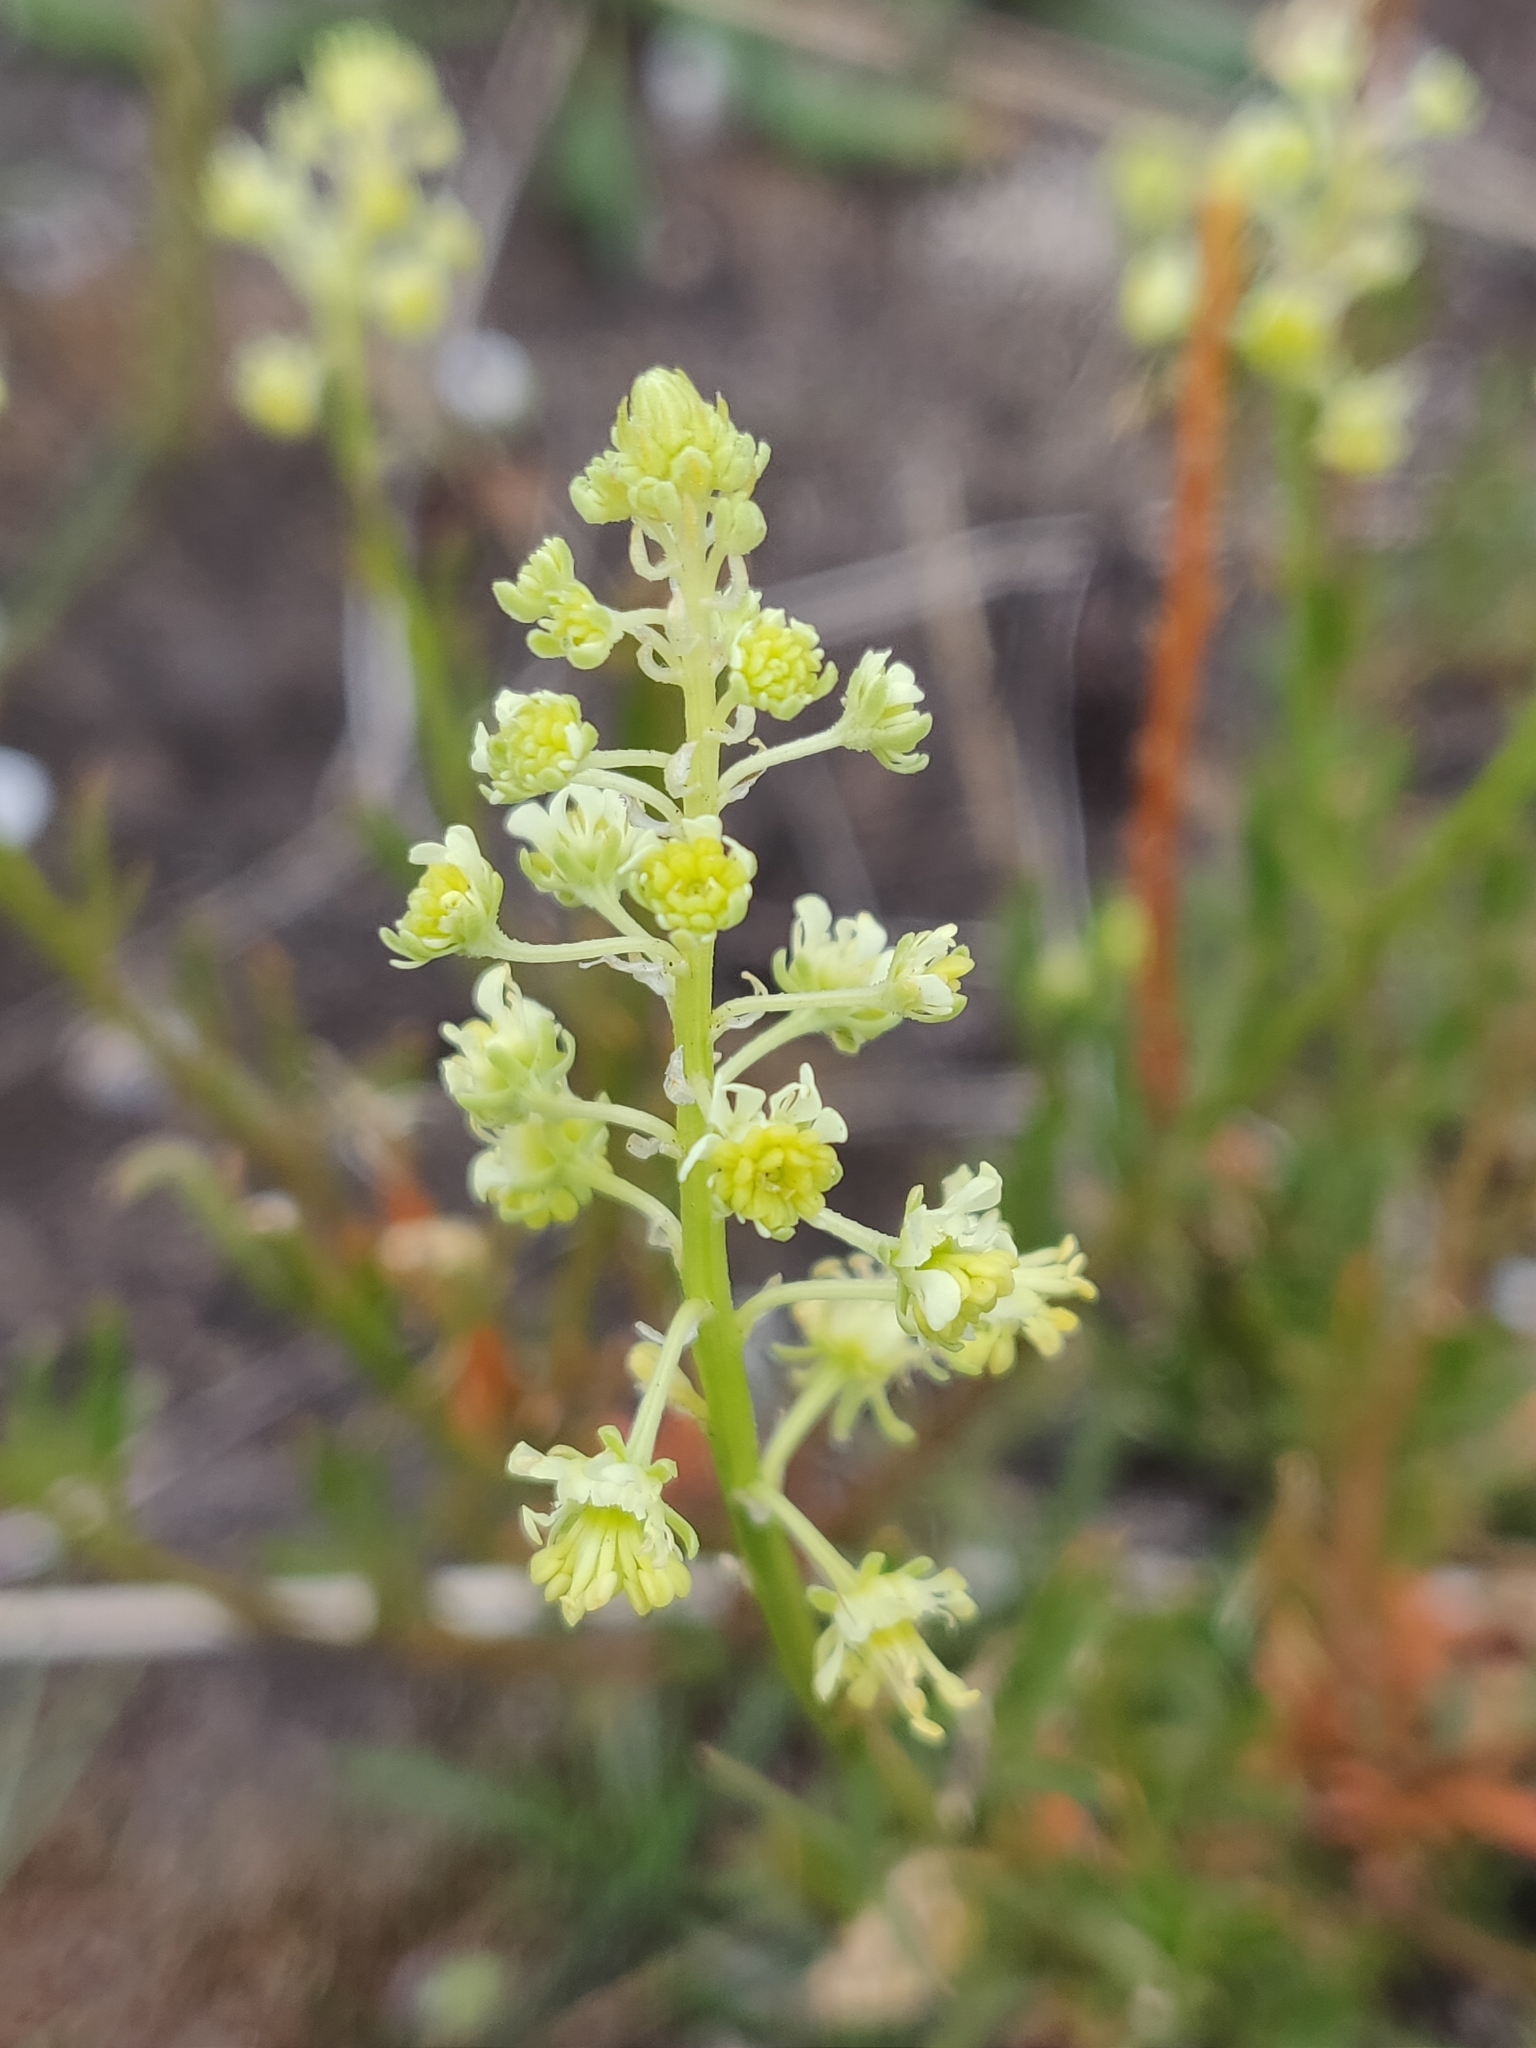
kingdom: Plantae
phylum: Tracheophyta
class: Magnoliopsida
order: Brassicales
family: Resedaceae
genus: Reseda
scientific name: Reseda lutea
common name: Wild mignonette
